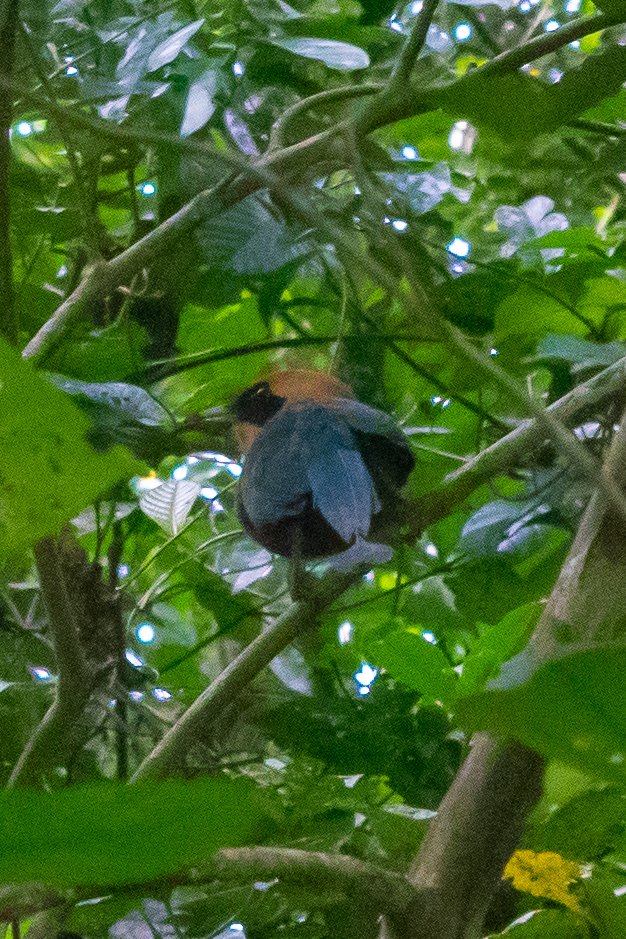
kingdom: Animalia
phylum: Chordata
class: Aves
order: Coraciiformes
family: Momotidae
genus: Baryphthengus
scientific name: Baryphthengus martii
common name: Rufous motmot
